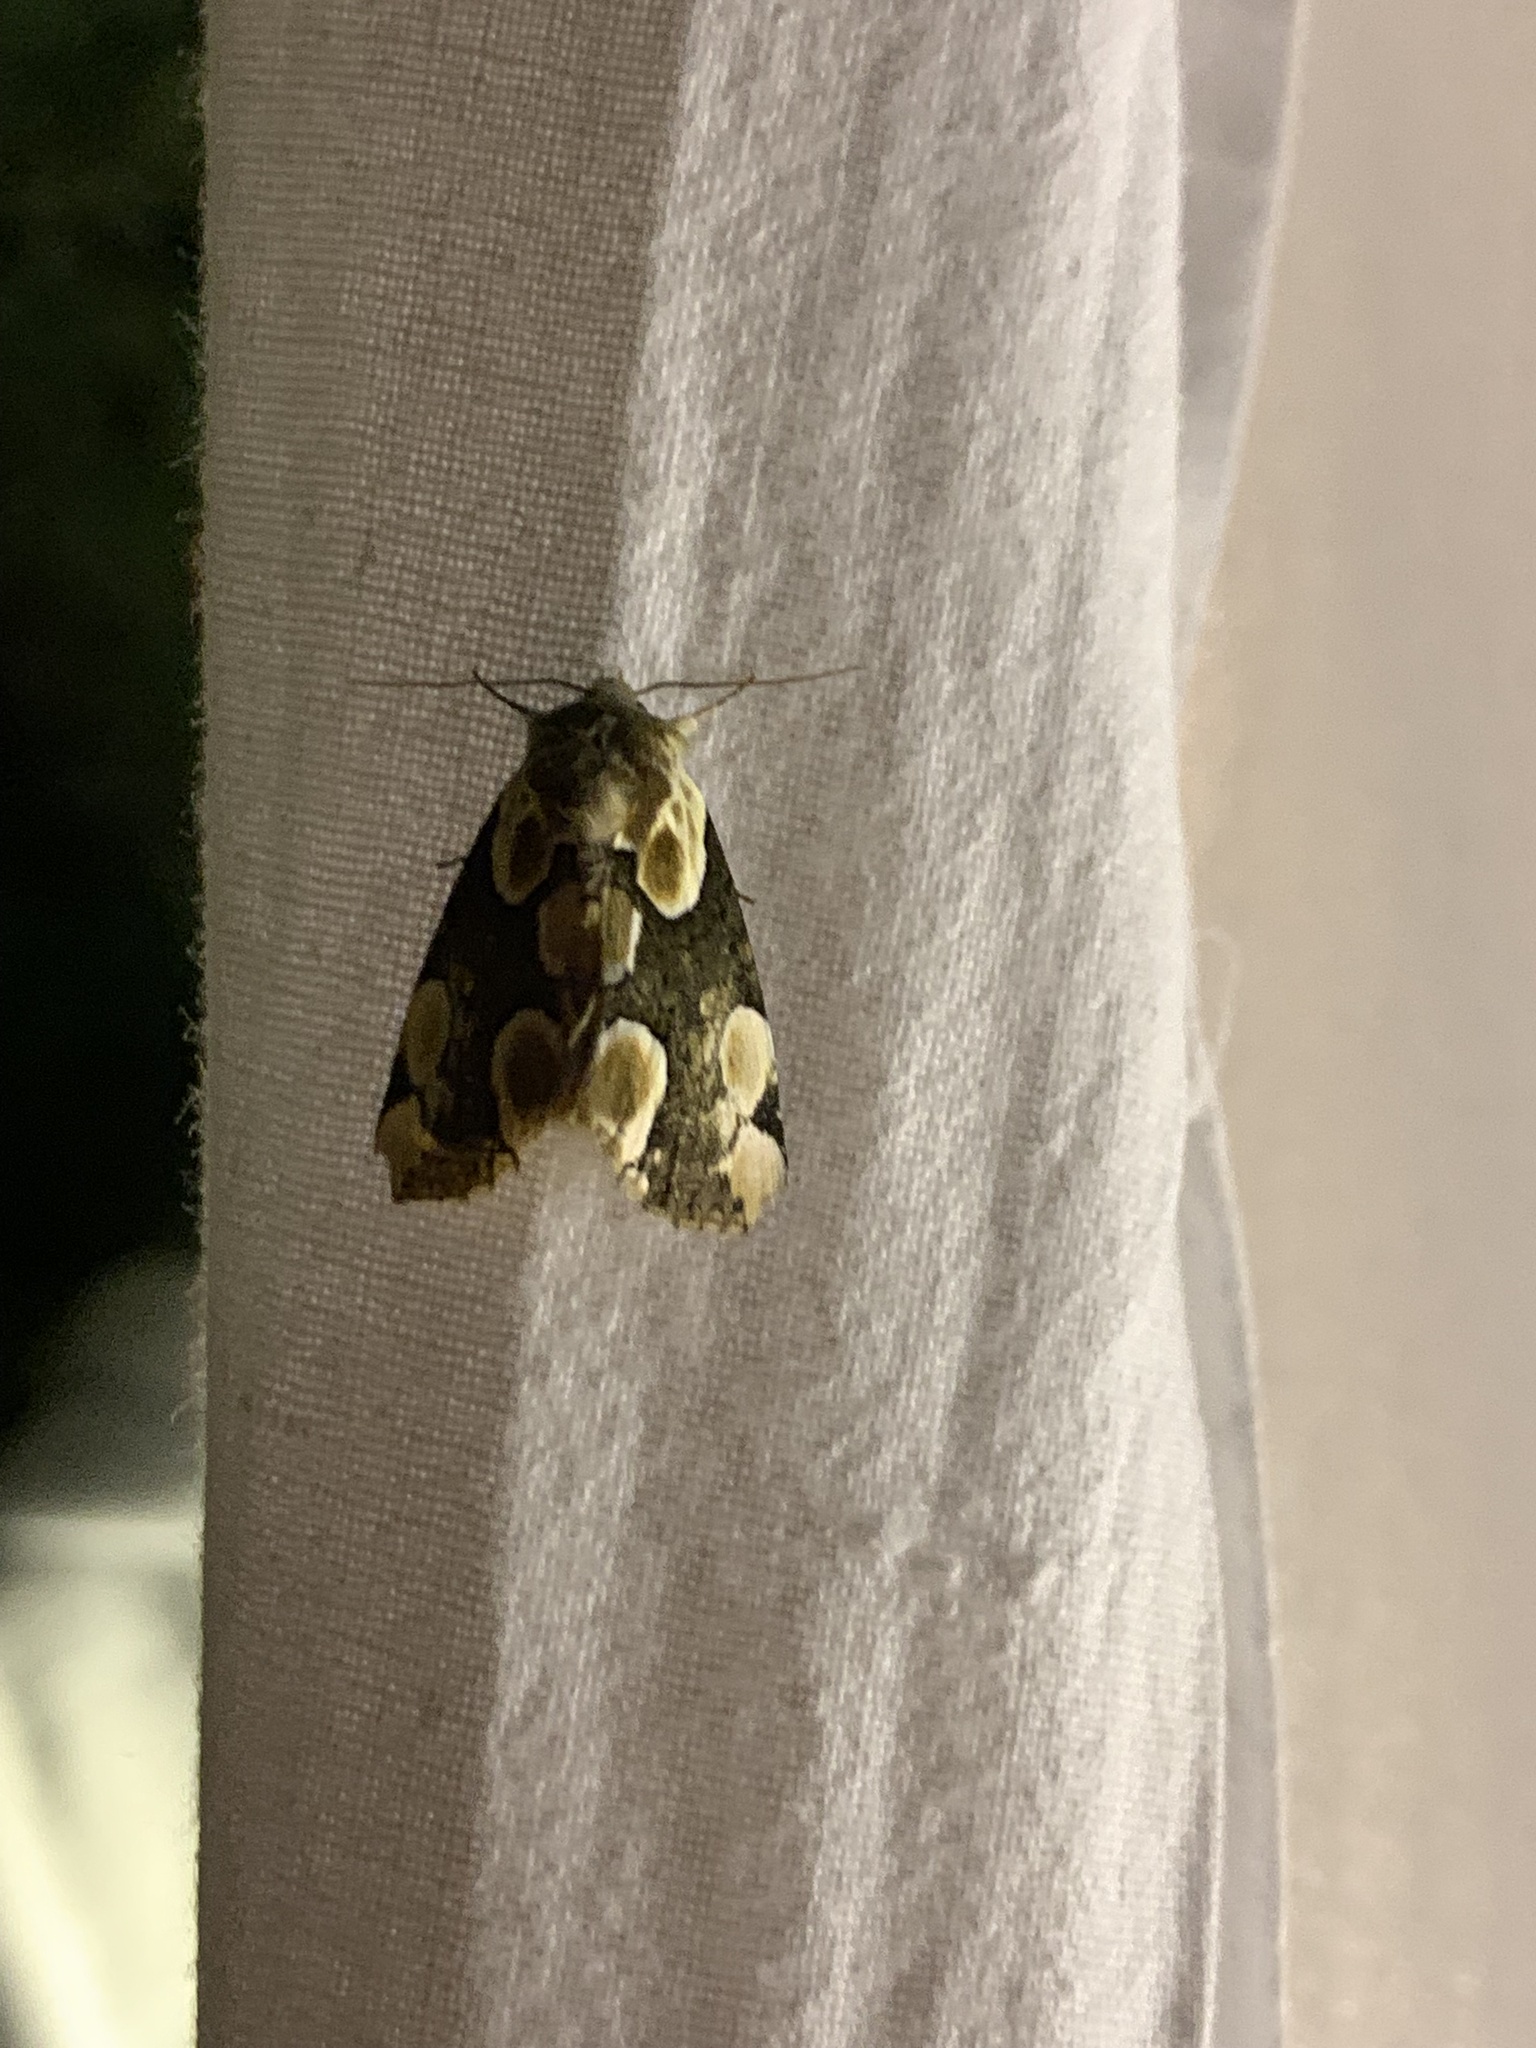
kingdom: Animalia
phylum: Arthropoda
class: Insecta
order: Lepidoptera
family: Drepanidae
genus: Thyatira
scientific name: Thyatira batis
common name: Peach blossom
